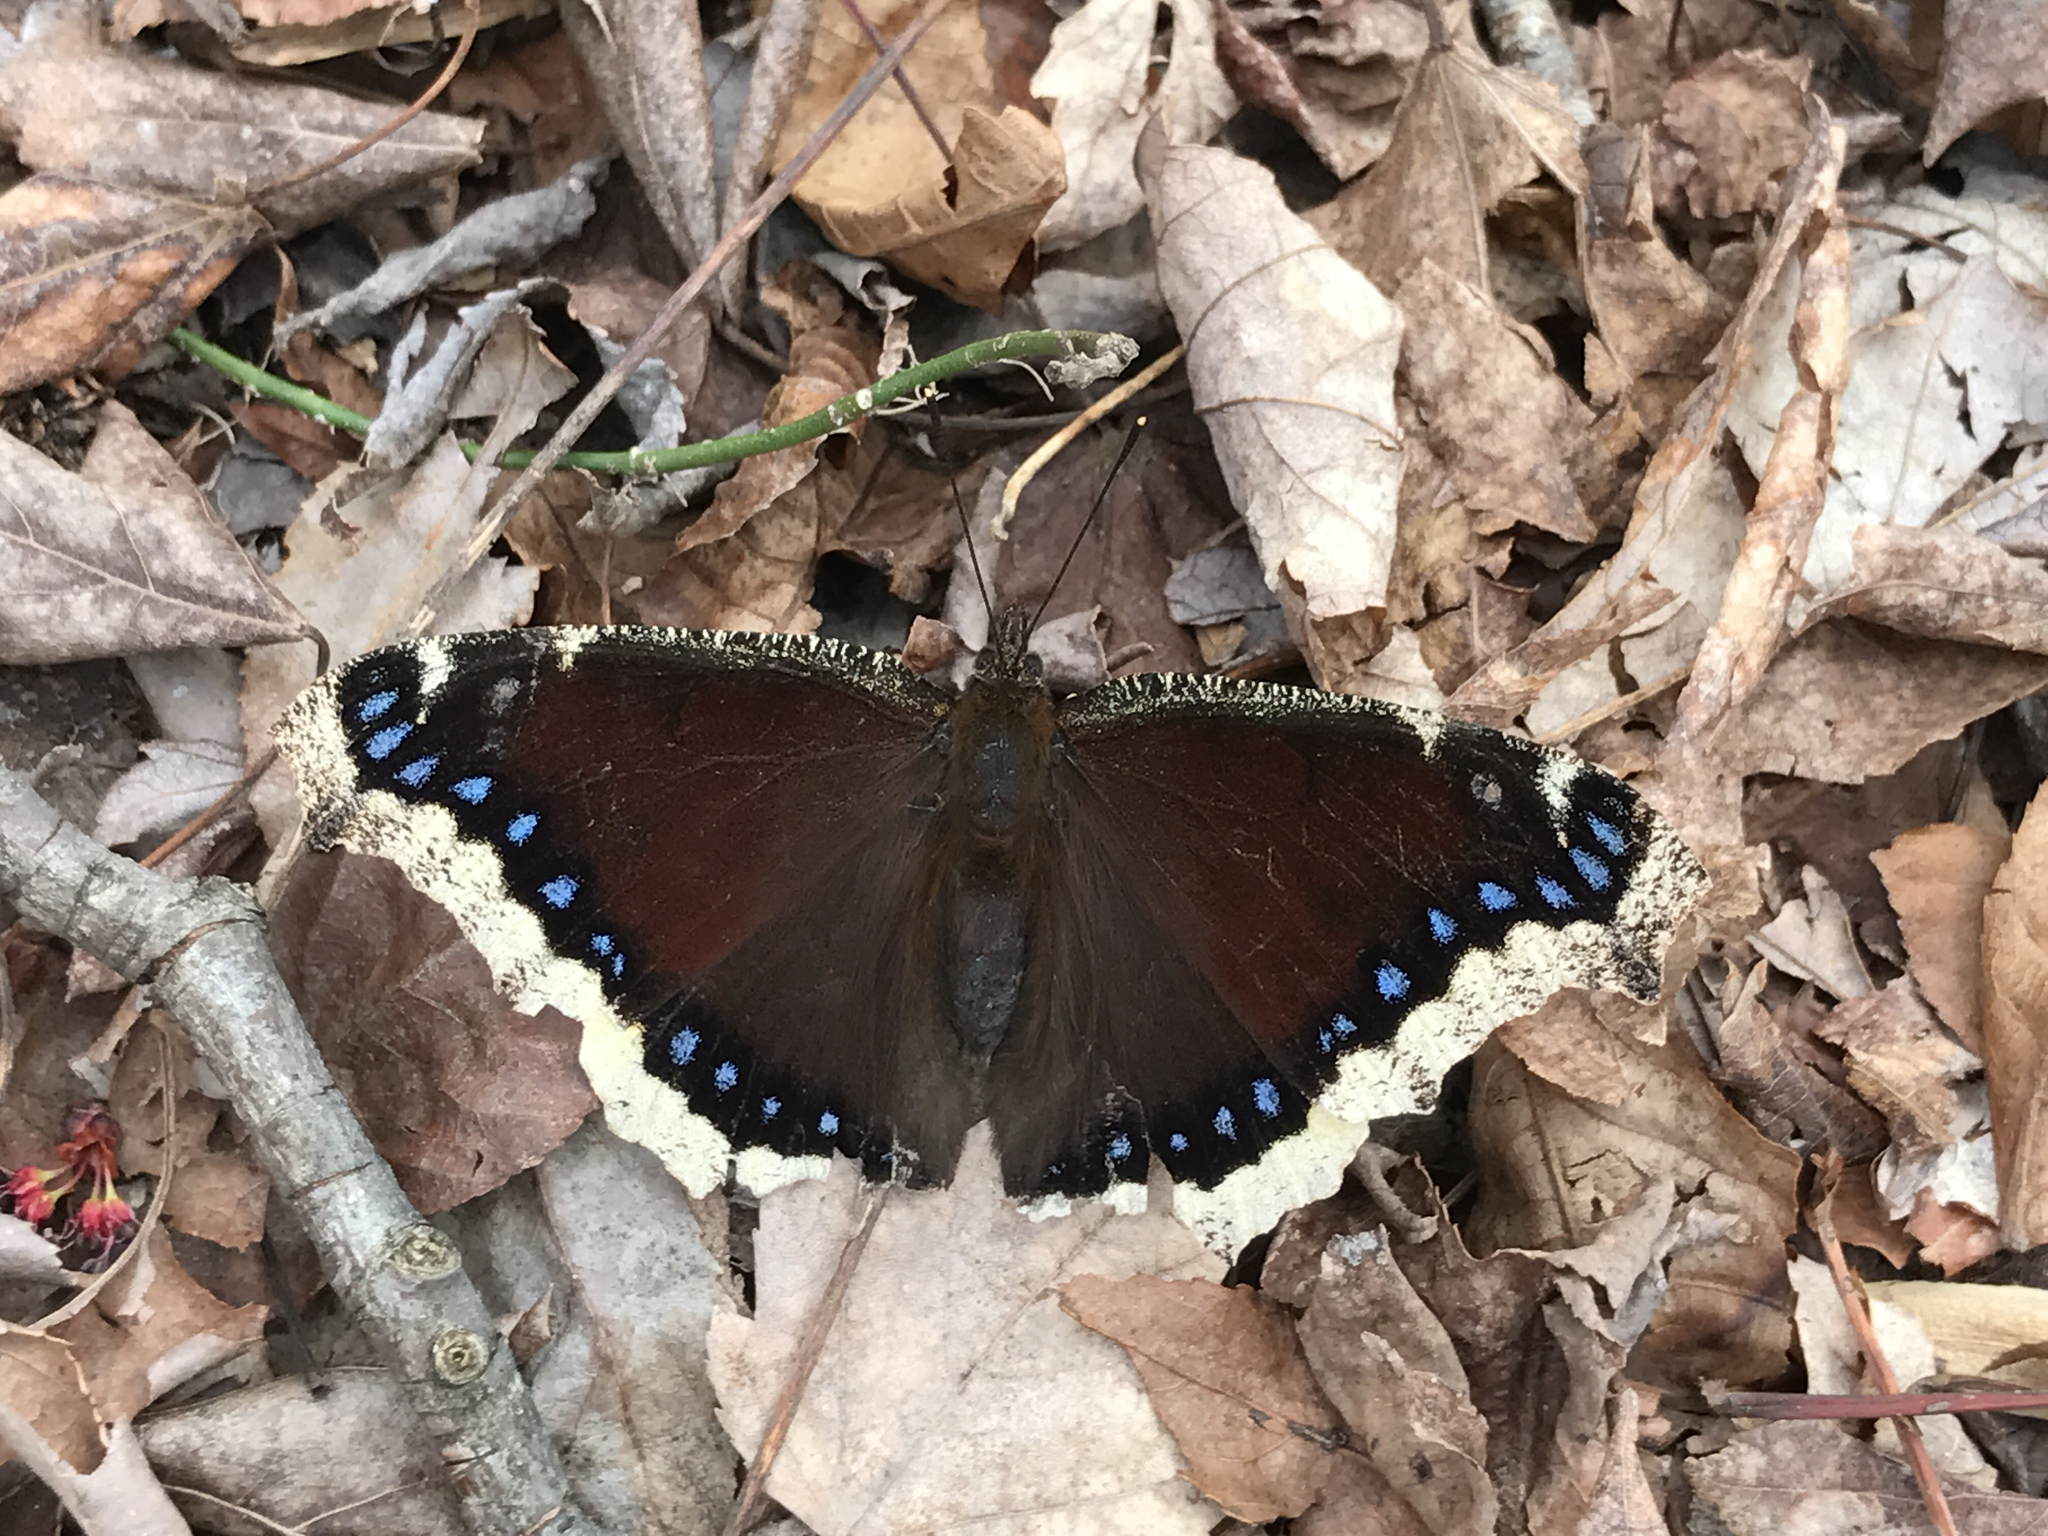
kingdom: Animalia
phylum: Arthropoda
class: Insecta
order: Lepidoptera
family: Nymphalidae
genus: Nymphalis
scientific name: Nymphalis antiopa
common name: Camberwell beauty
